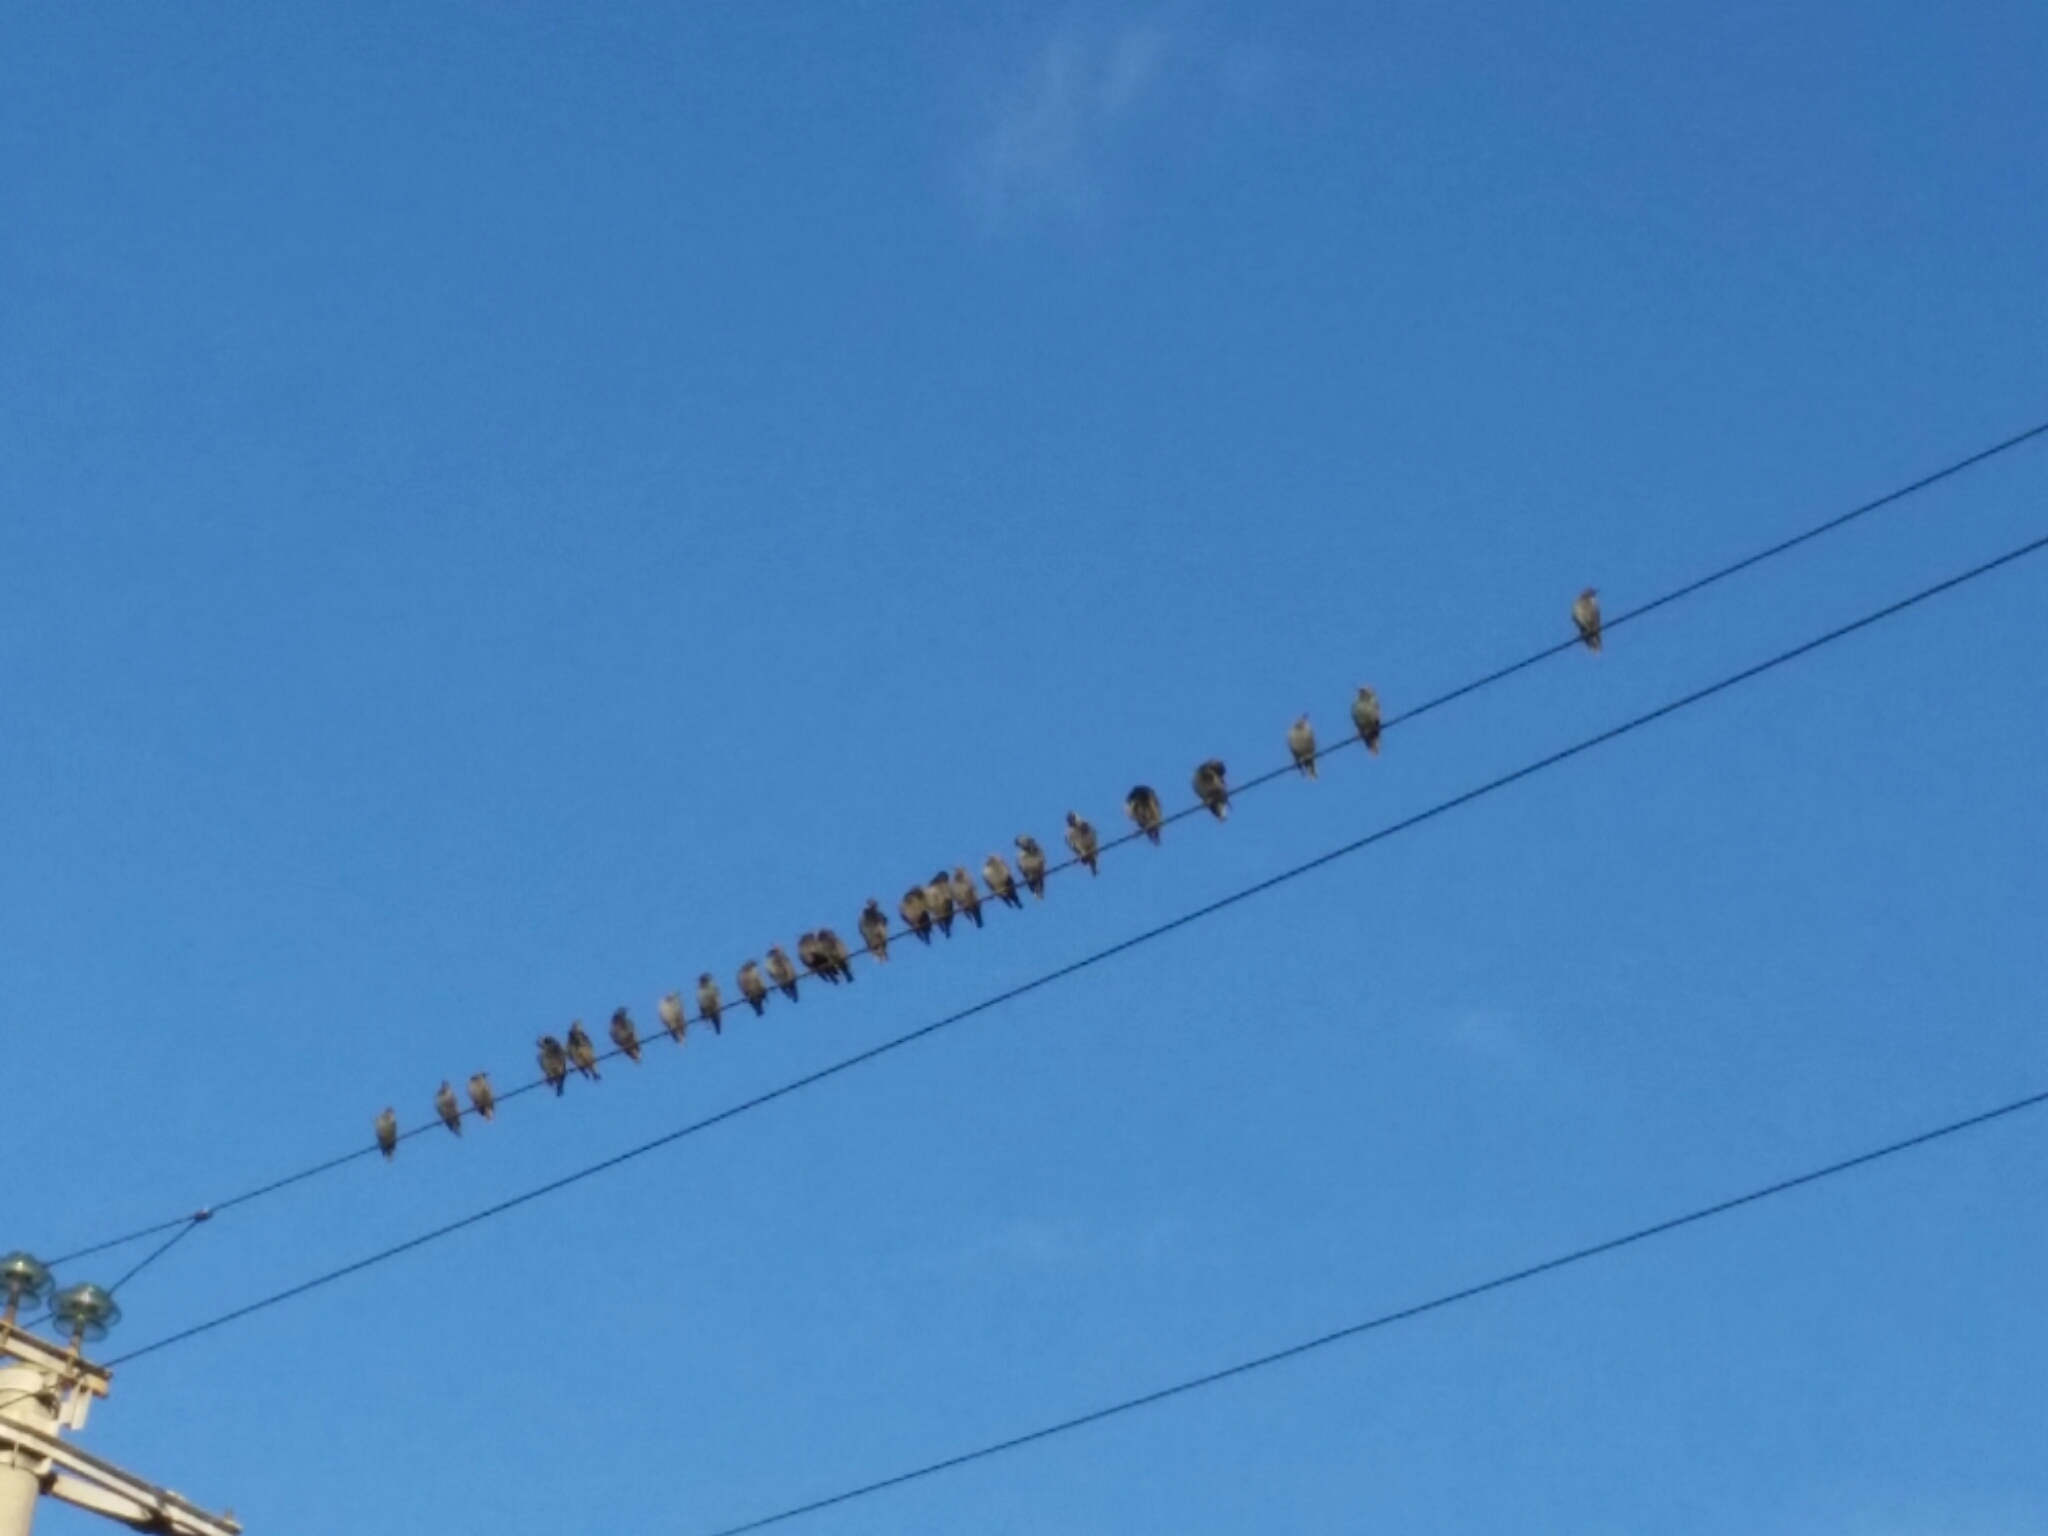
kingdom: Animalia
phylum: Chordata
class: Aves
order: Passeriformes
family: Sturnidae
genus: Sturnus
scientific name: Sturnus vulgaris
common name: Common starling
